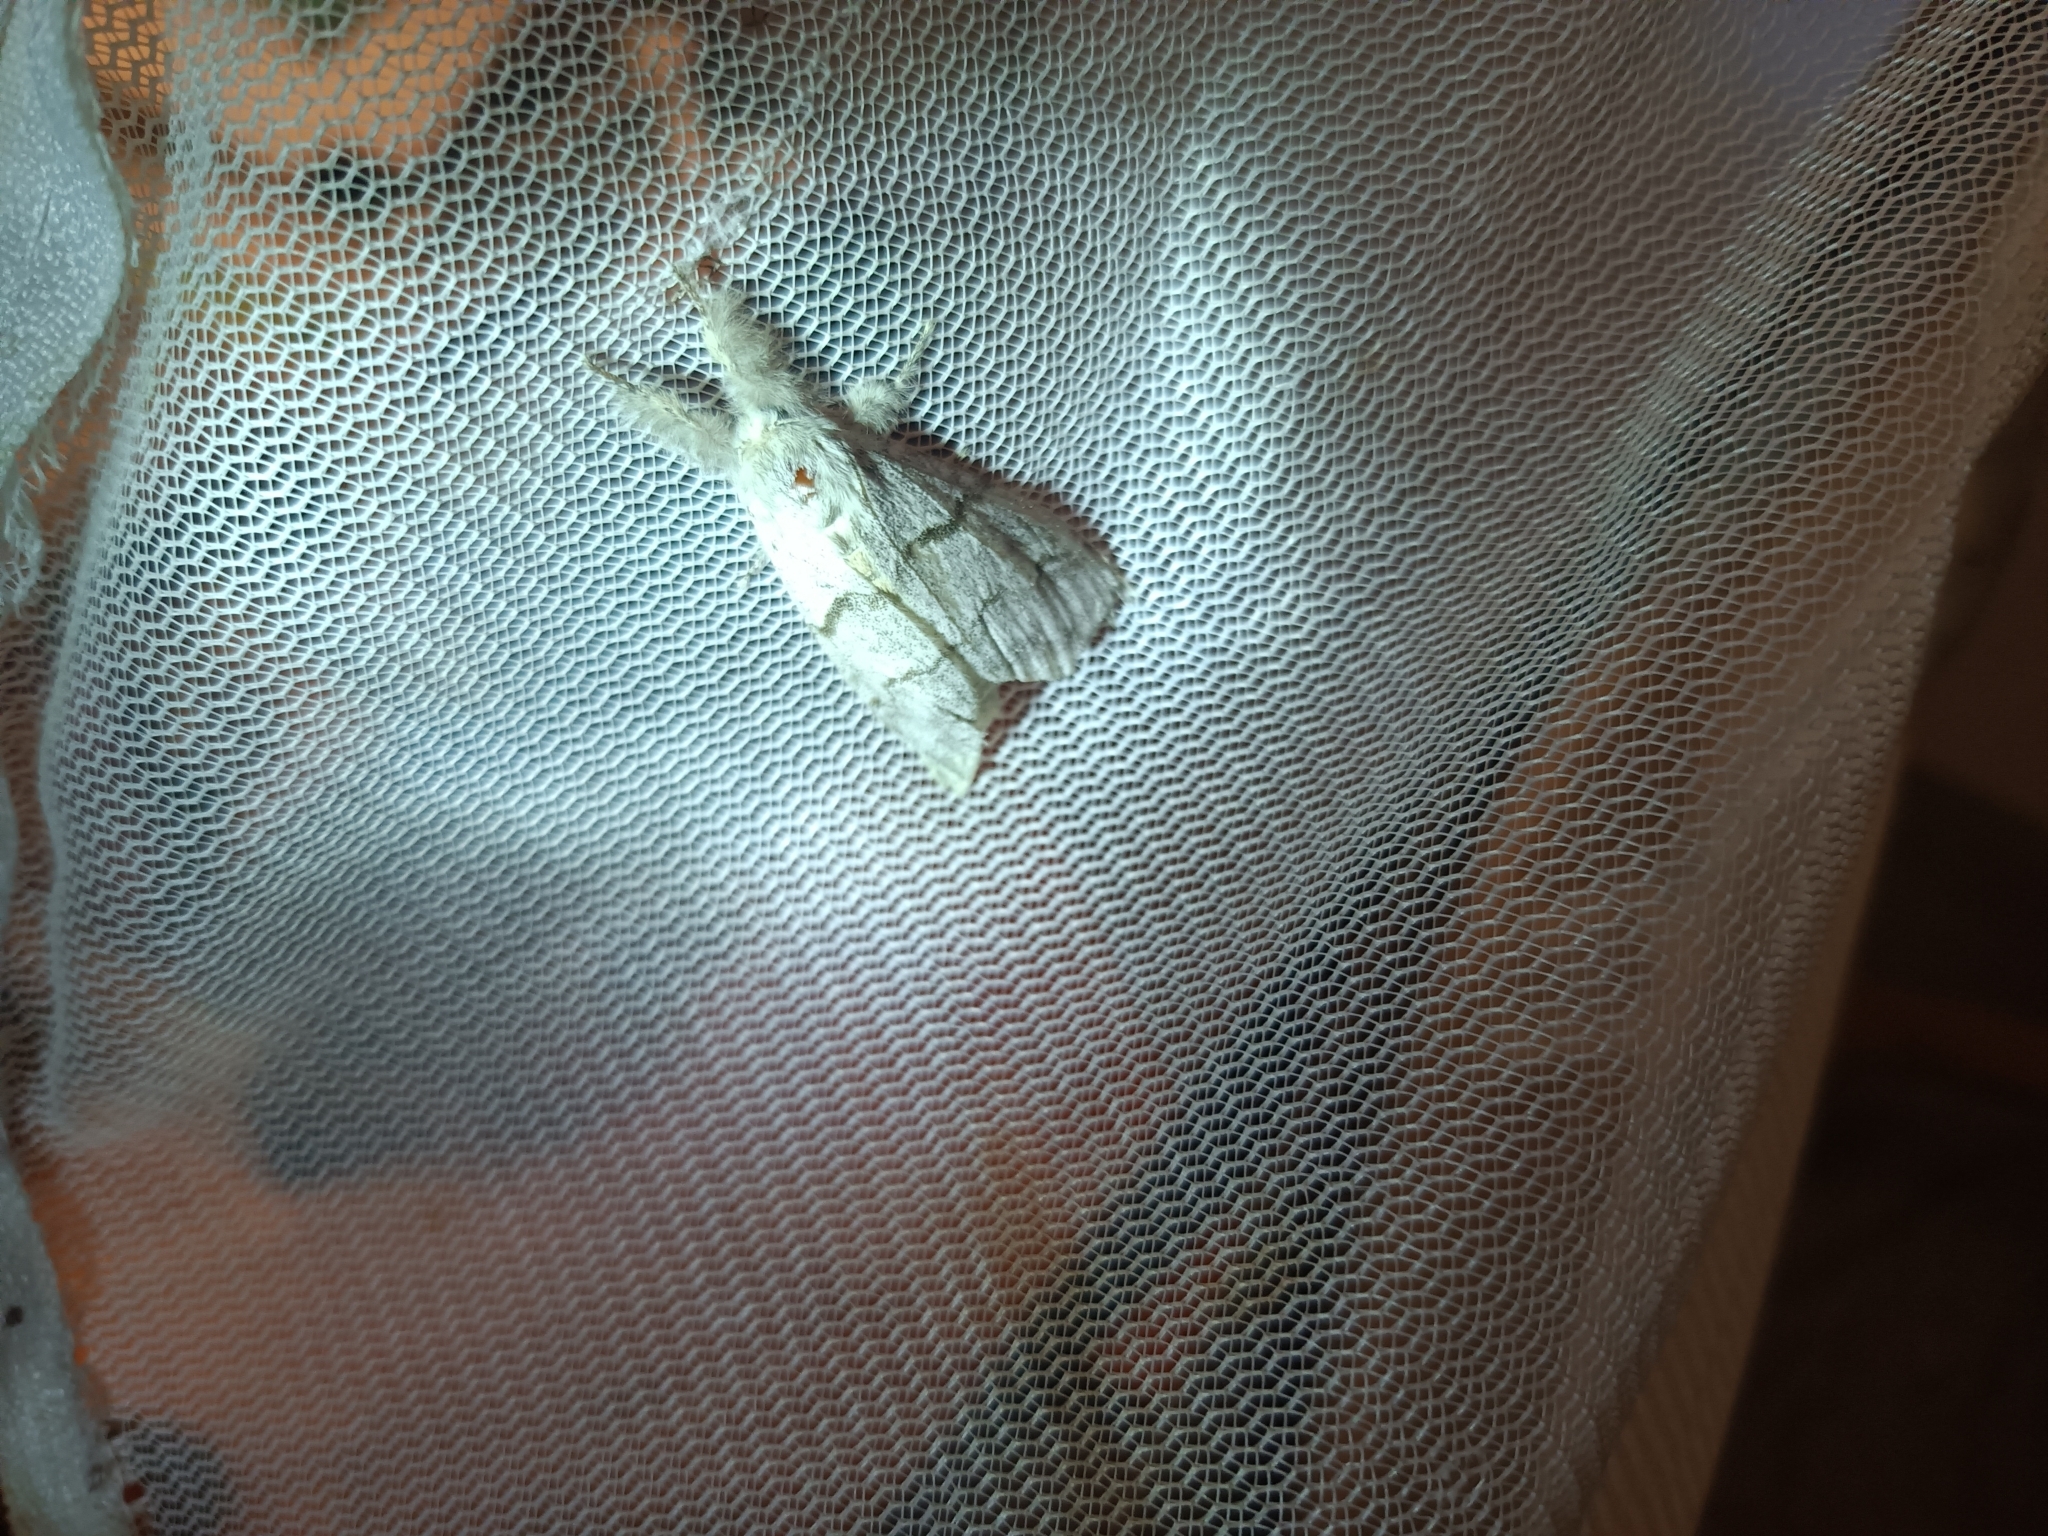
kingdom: Animalia
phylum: Arthropoda
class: Insecta
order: Lepidoptera
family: Erebidae
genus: Calliteara
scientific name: Calliteara pudibunda
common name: Pale tussock
